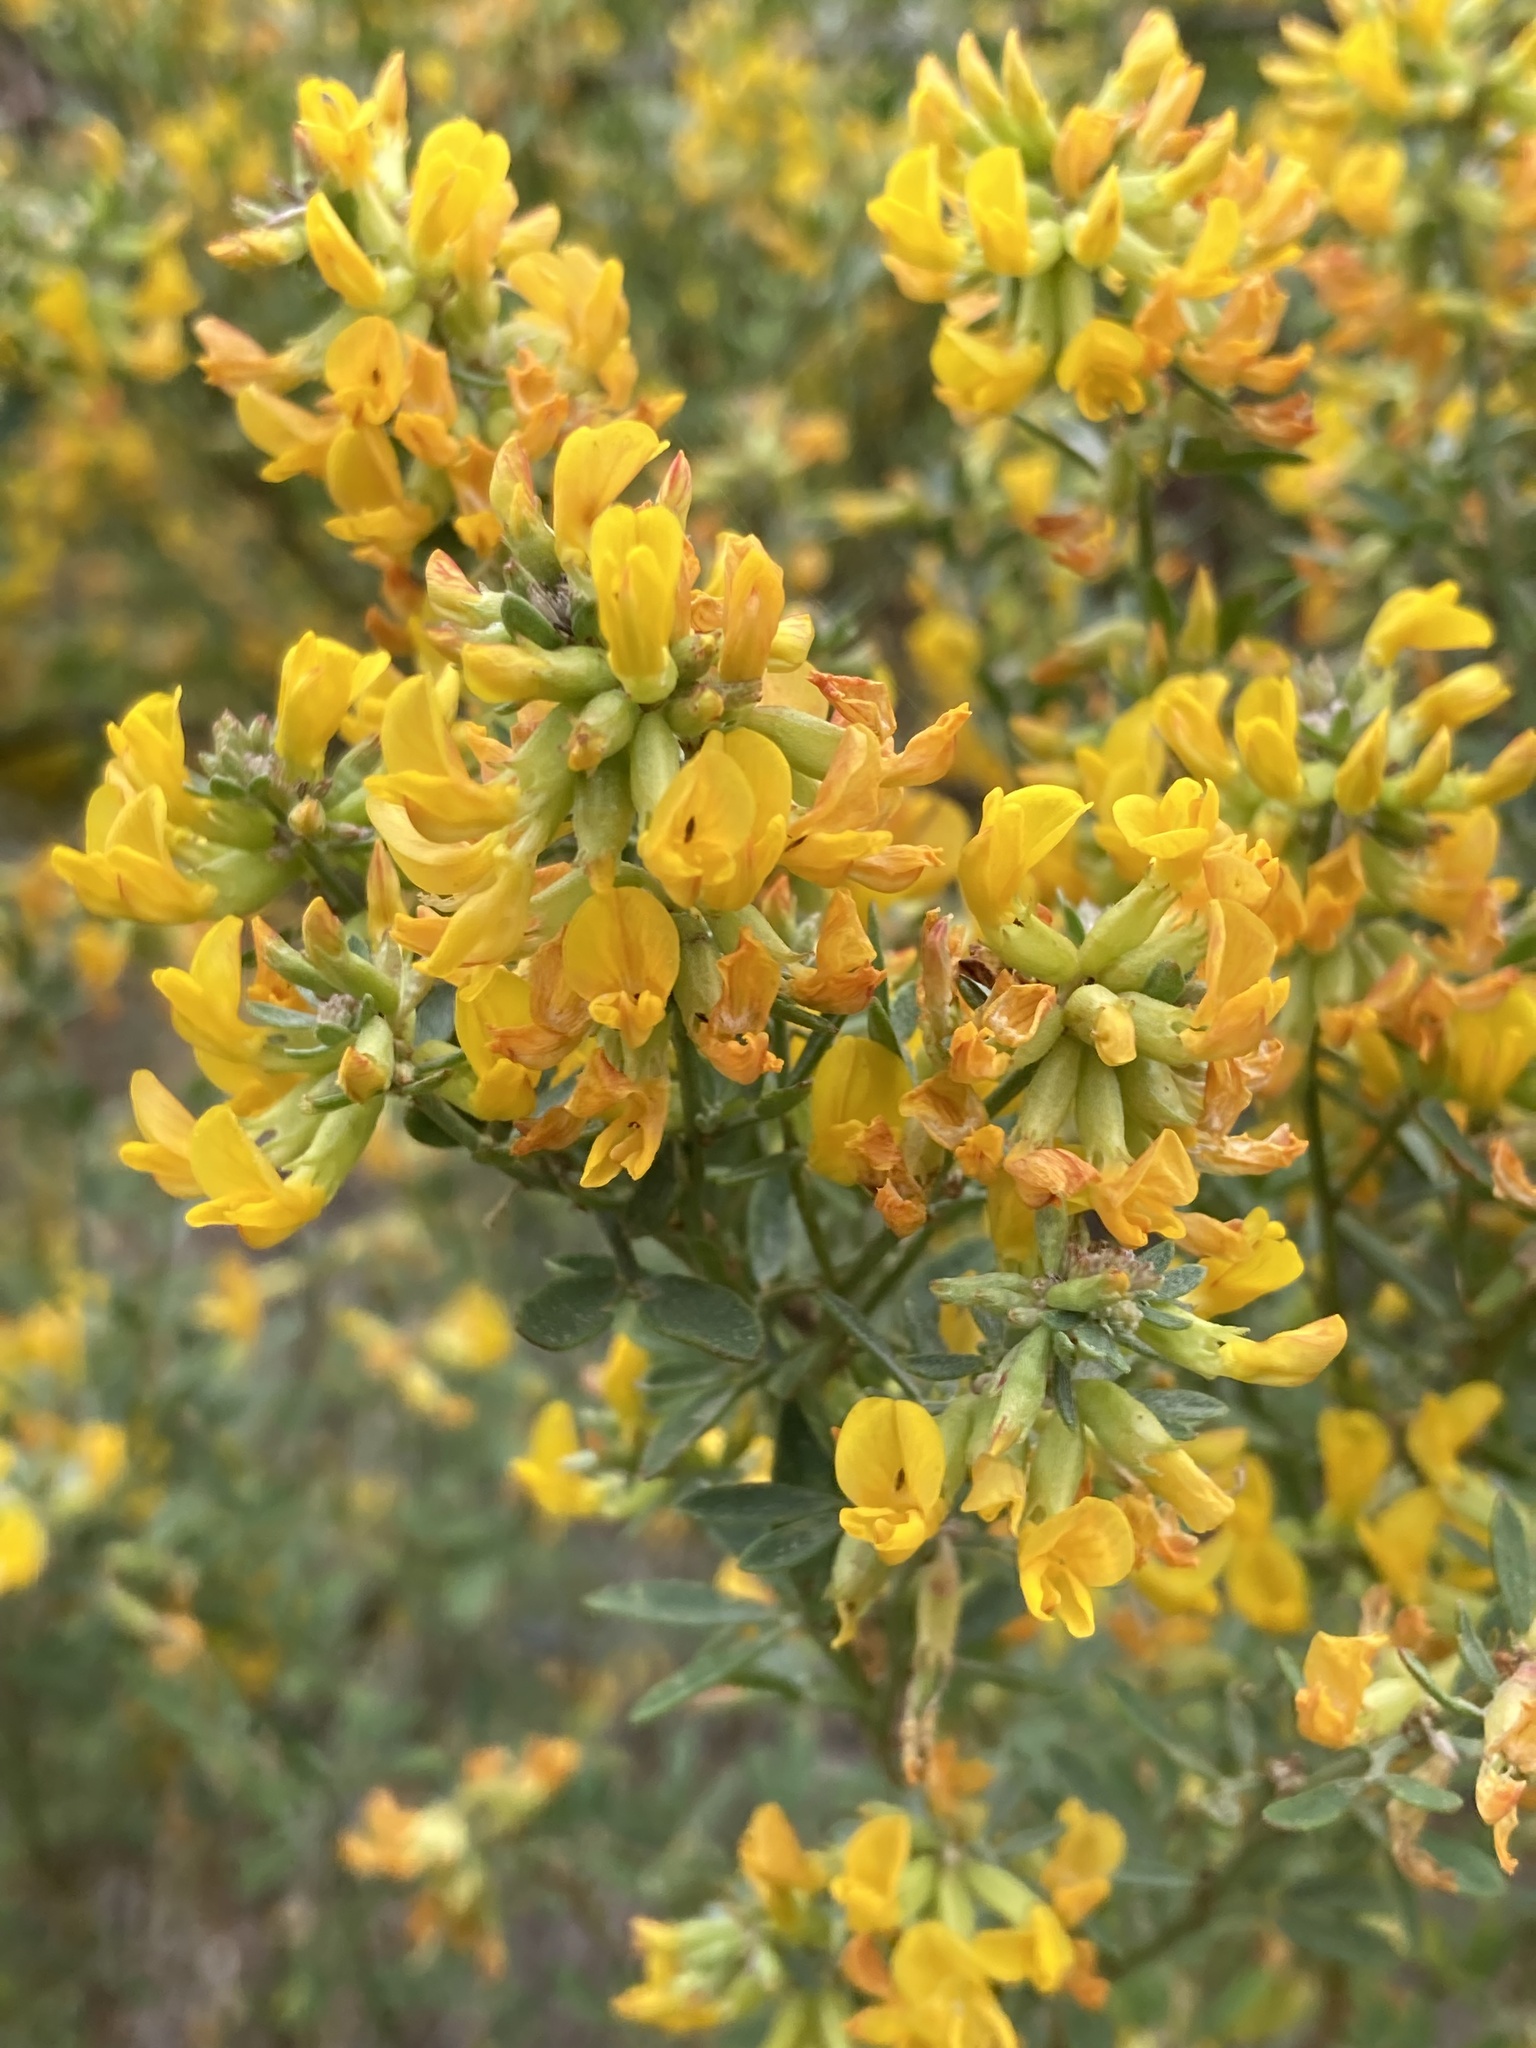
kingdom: Plantae
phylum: Tracheophyta
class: Magnoliopsida
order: Fabales
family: Fabaceae
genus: Acmispon
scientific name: Acmispon dendroideus
